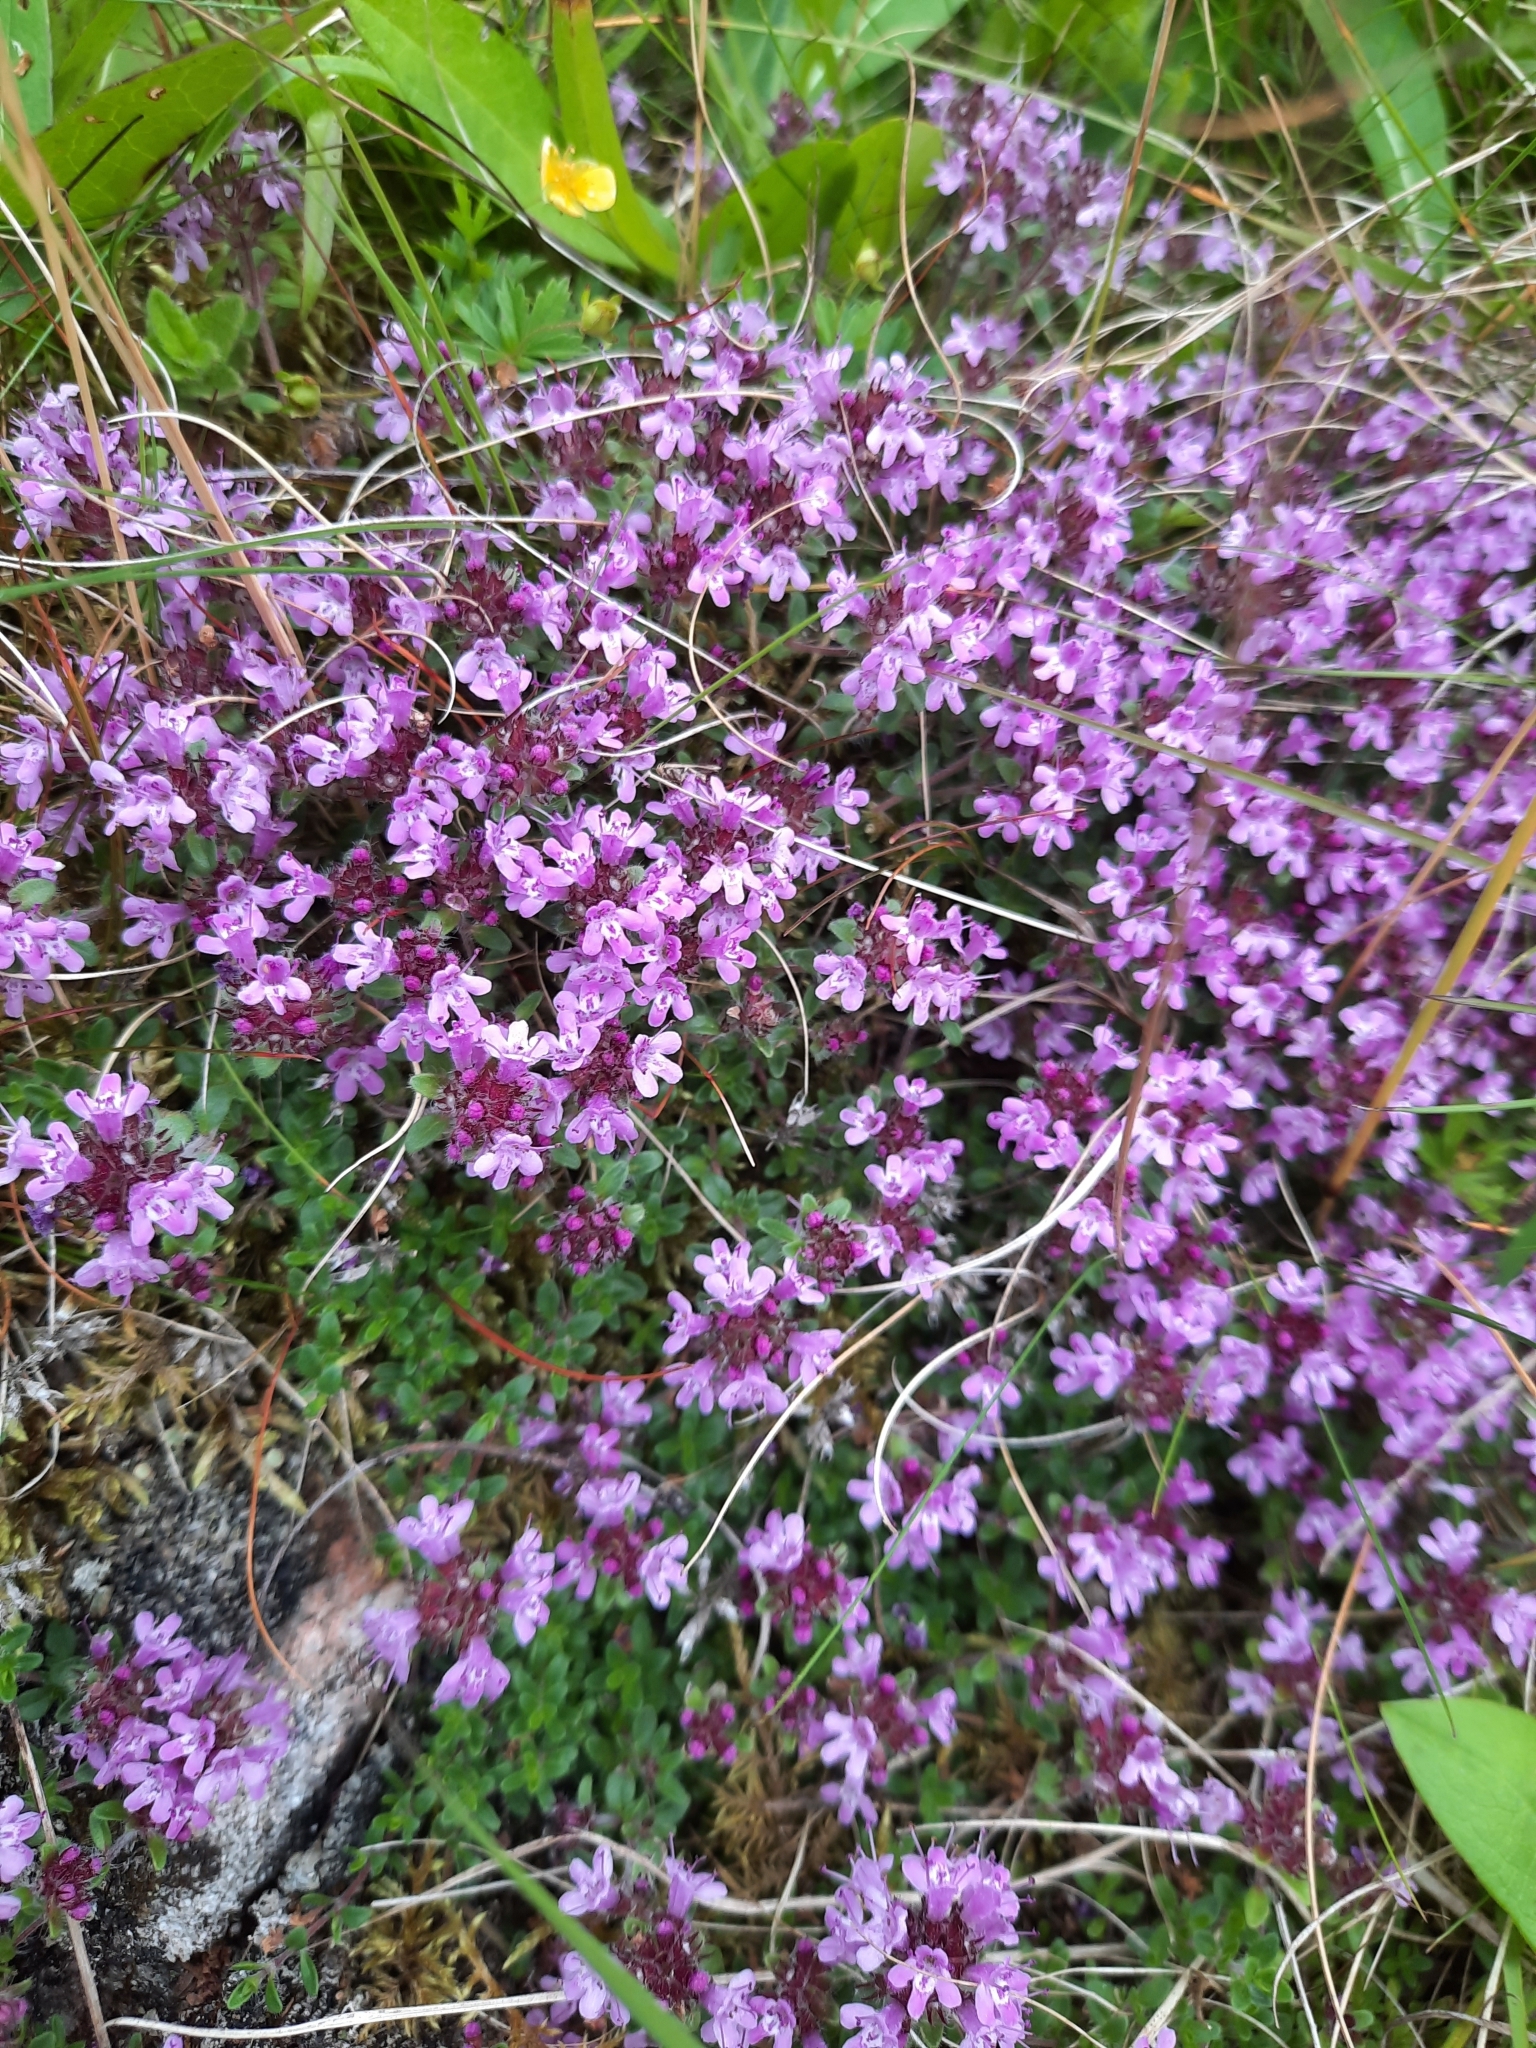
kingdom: Plantae
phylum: Tracheophyta
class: Magnoliopsida
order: Lamiales
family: Lamiaceae
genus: Thymus
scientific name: Thymus praecox
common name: Wild thyme
